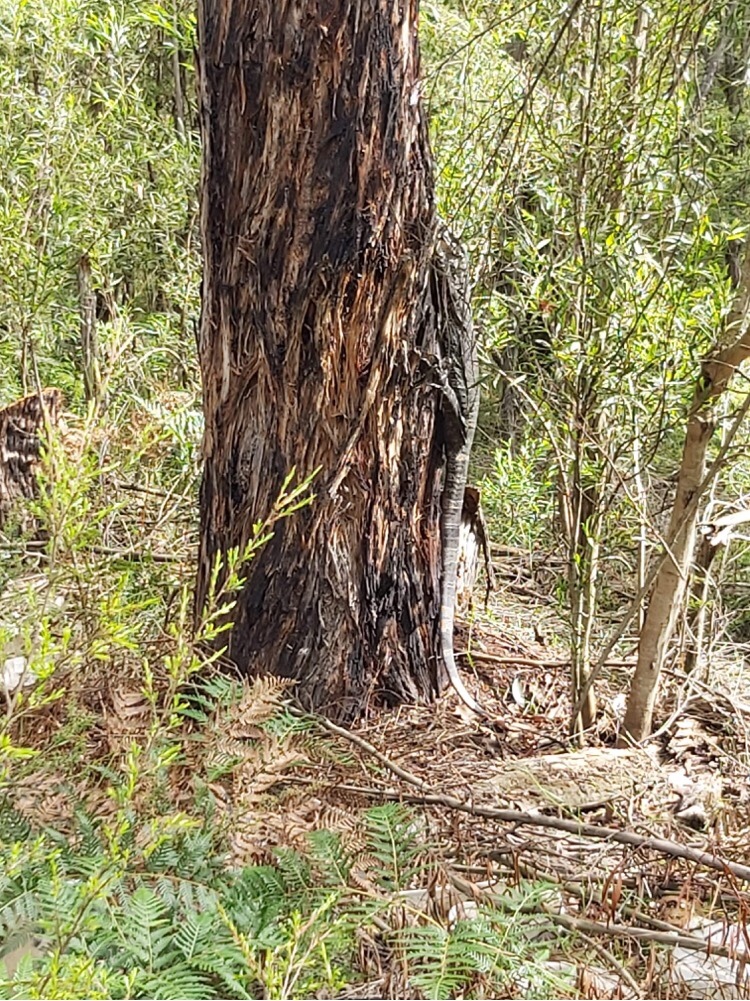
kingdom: Animalia
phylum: Chordata
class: Squamata
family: Varanidae
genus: Varanus
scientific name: Varanus varius
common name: Lace monitor
